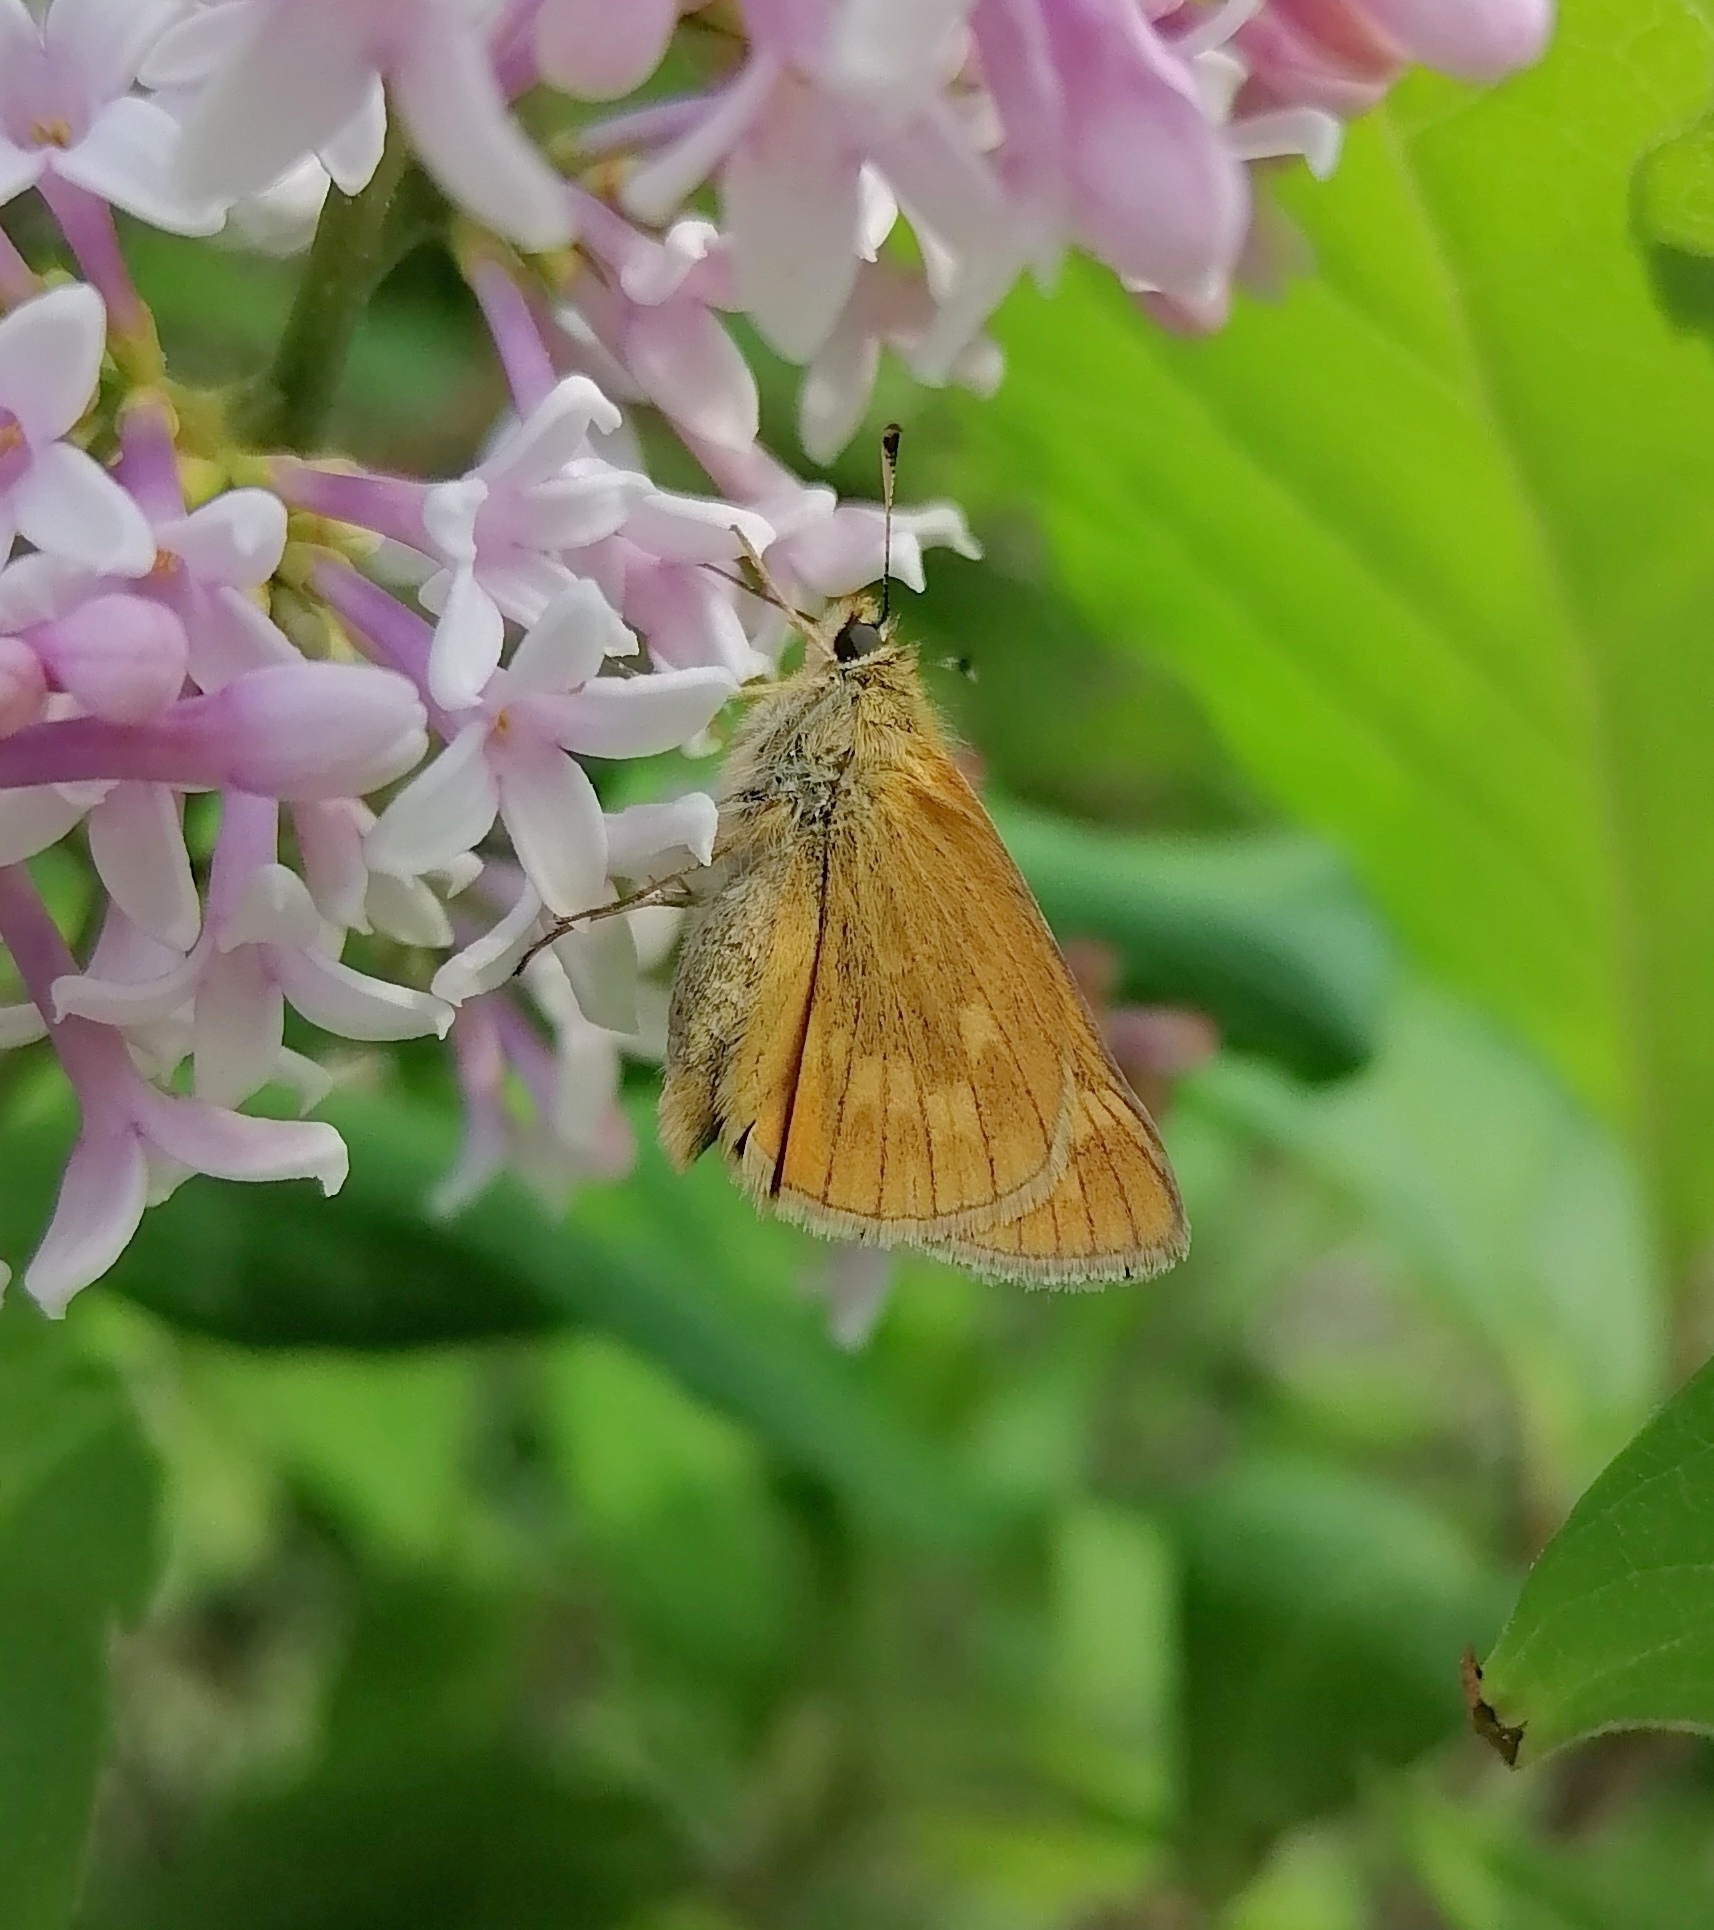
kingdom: Animalia
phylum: Arthropoda
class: Insecta
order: Lepidoptera
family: Hesperiidae
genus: Ochlodes
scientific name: Ochlodes venata
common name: Large skipper
